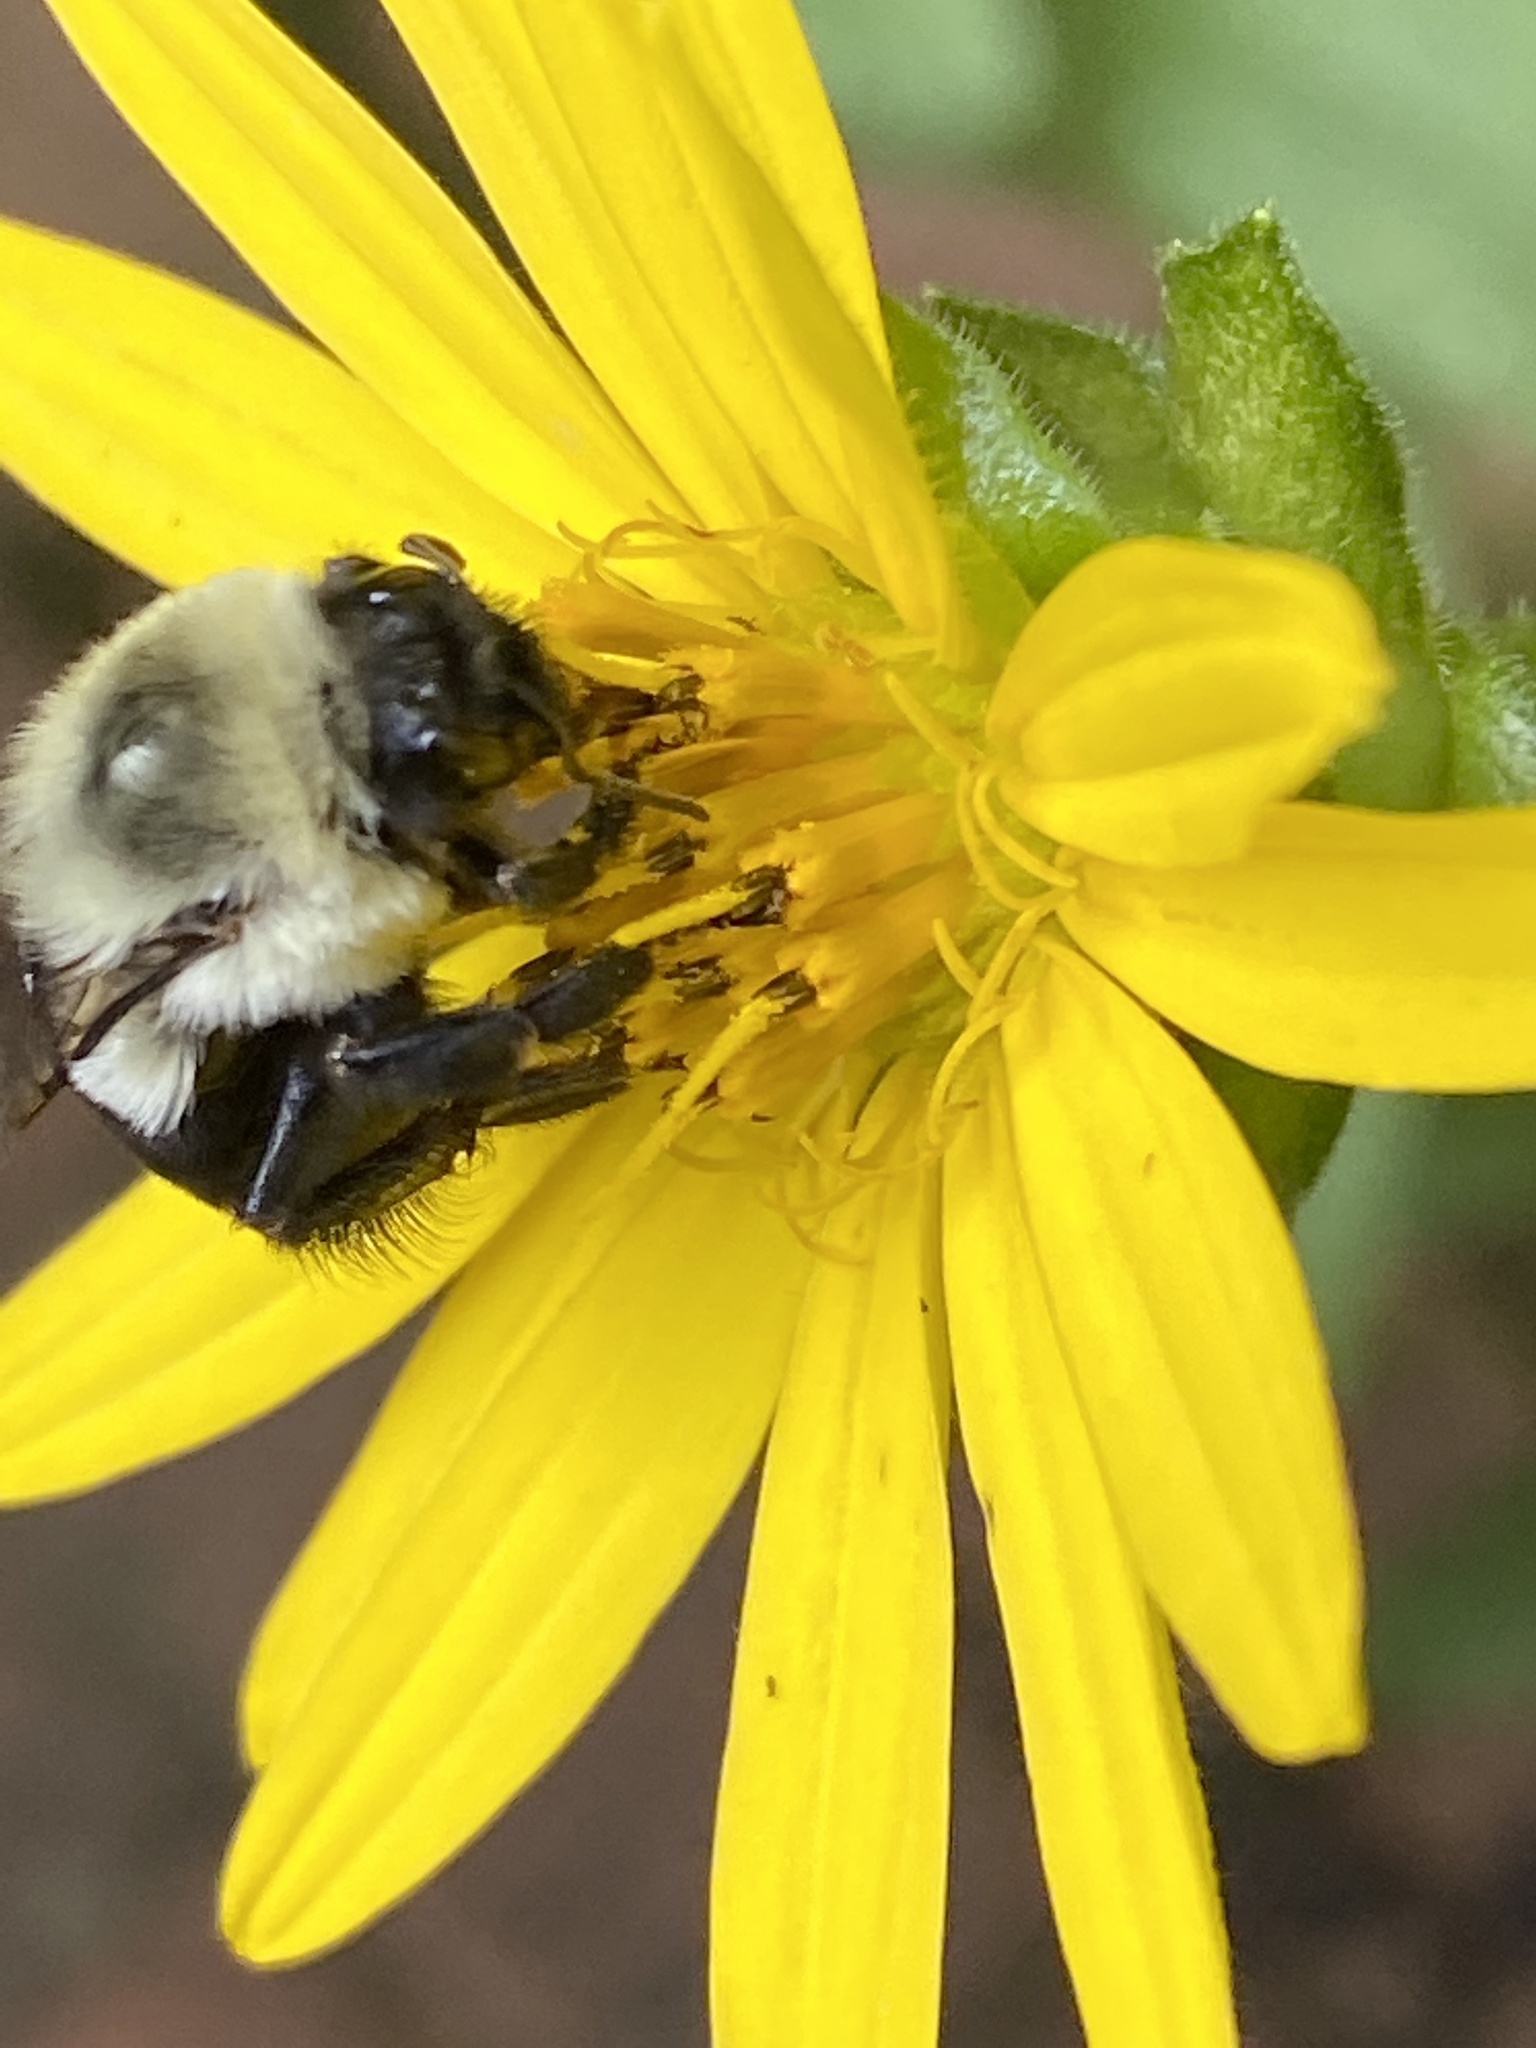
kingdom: Animalia
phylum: Arthropoda
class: Insecta
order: Hymenoptera
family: Apidae
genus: Bombus
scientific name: Bombus impatiens
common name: Common eastern bumble bee
